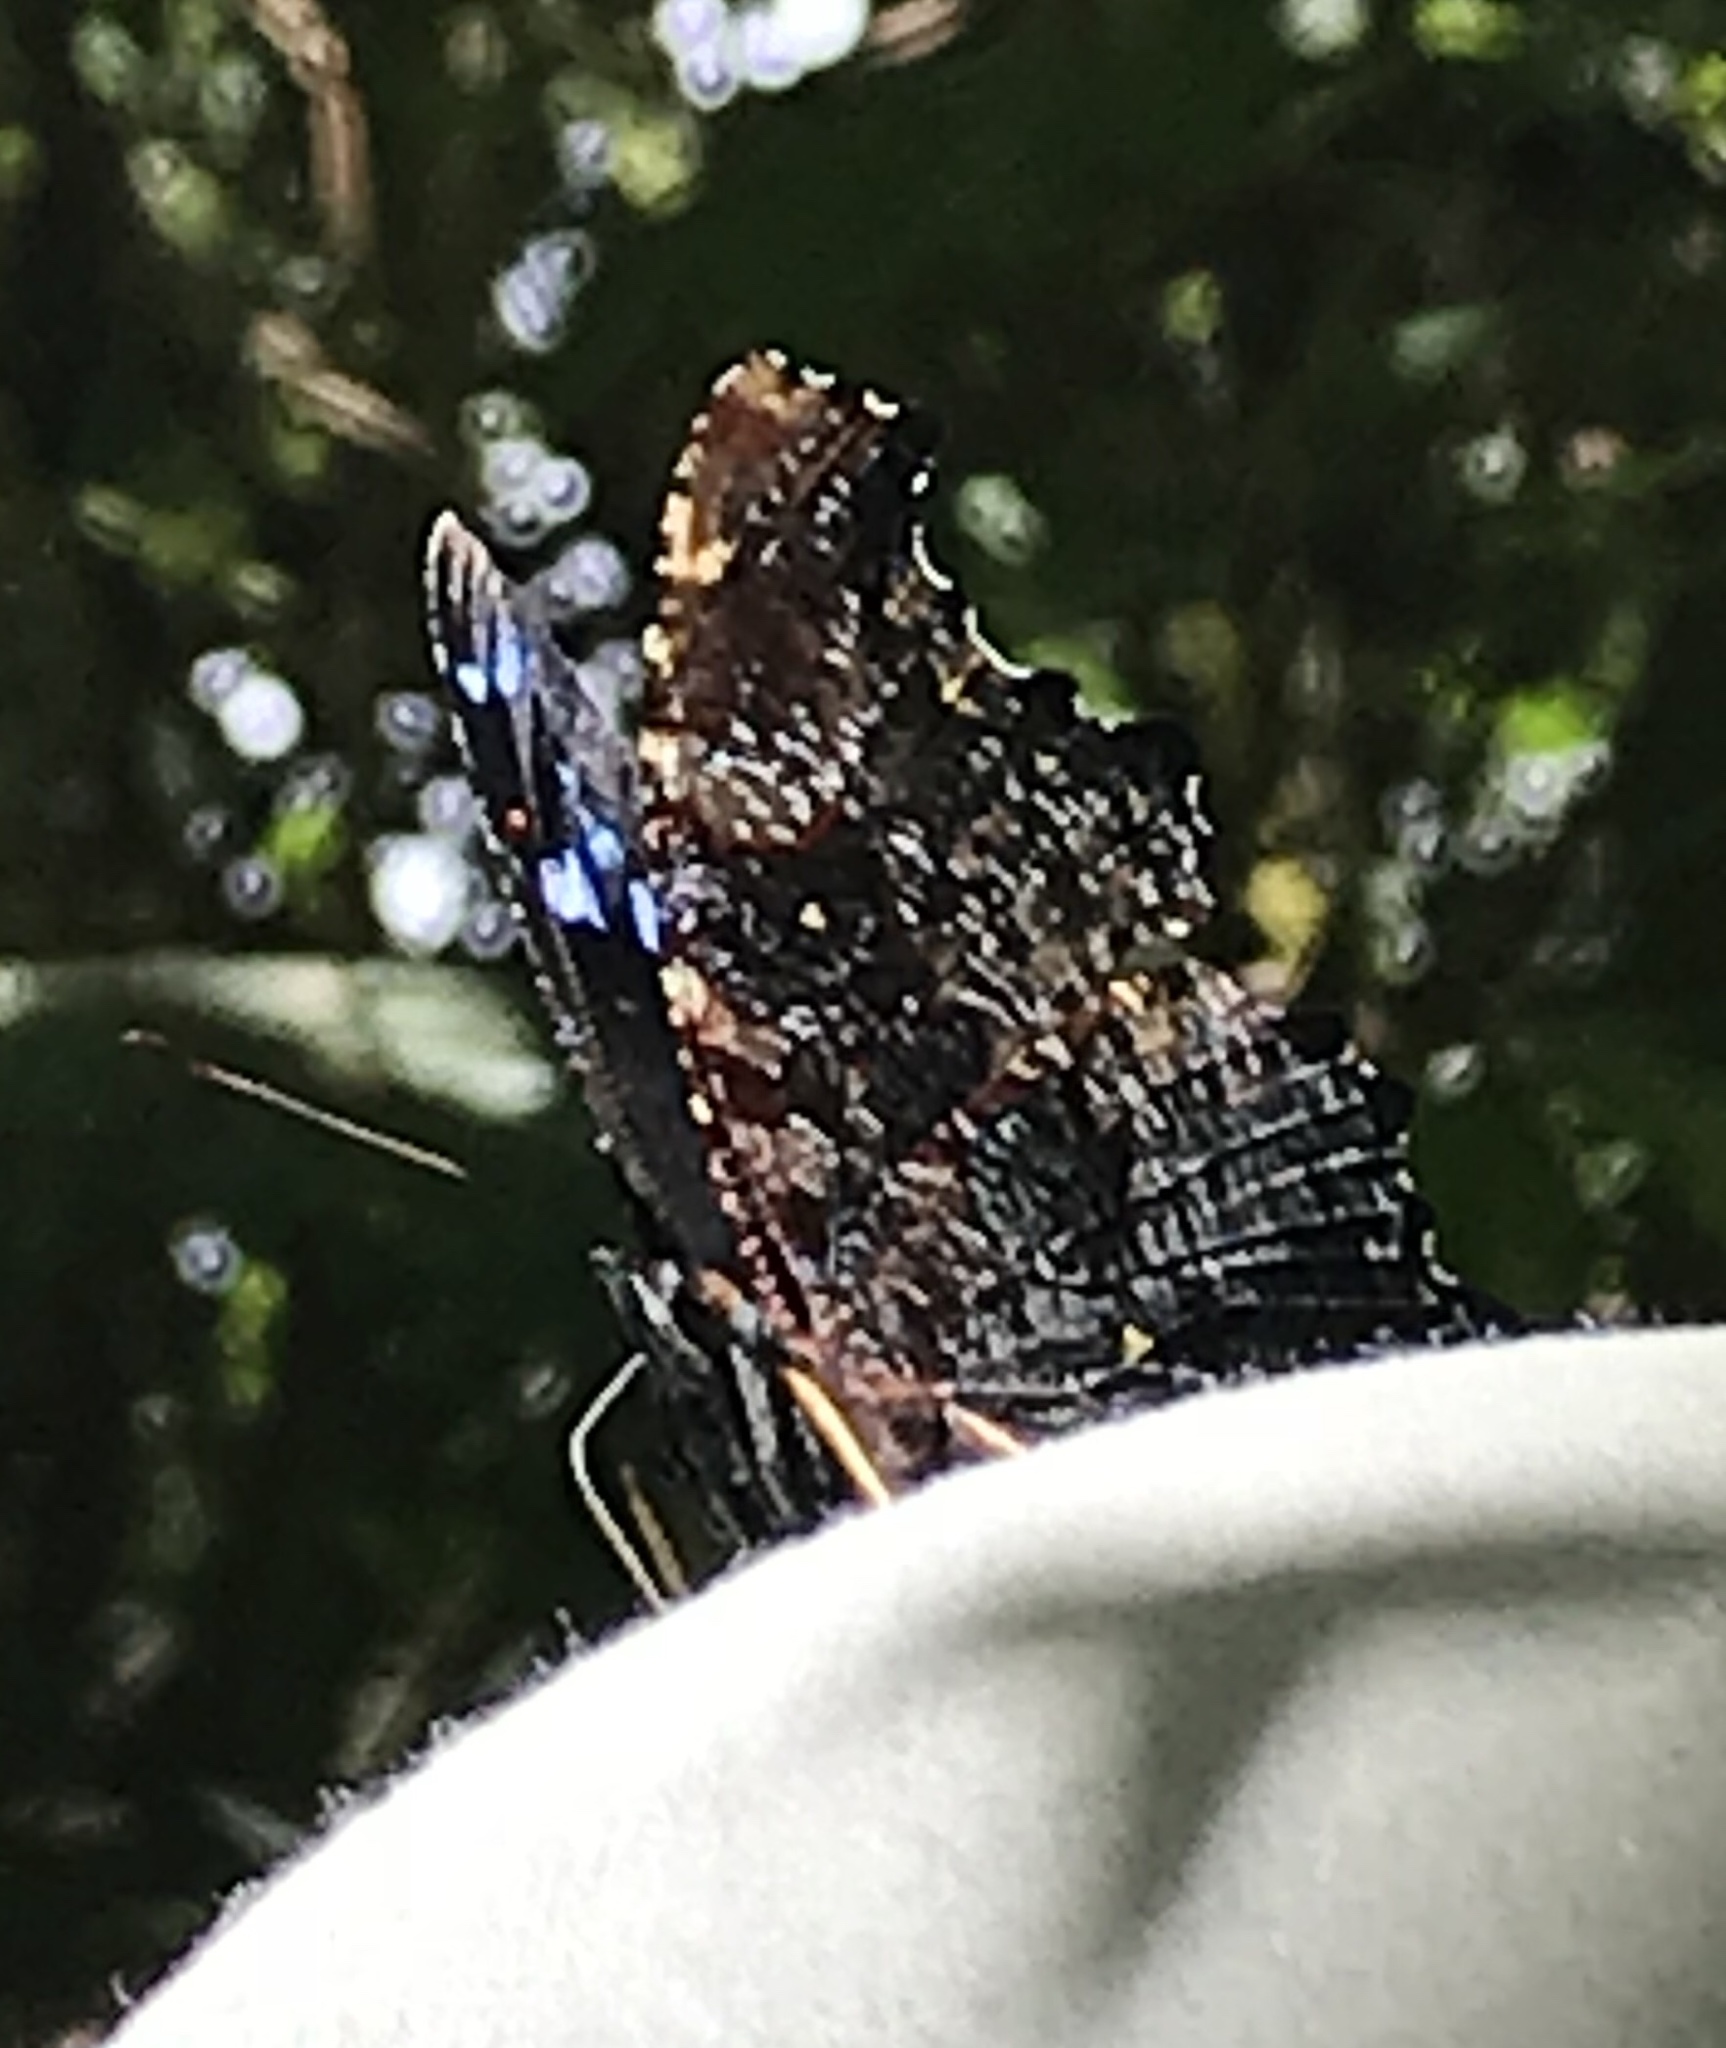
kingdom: Animalia
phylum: Arthropoda
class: Insecta
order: Lepidoptera
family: Nymphalidae
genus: Vanessa
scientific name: Vanessa Kaniska canace
